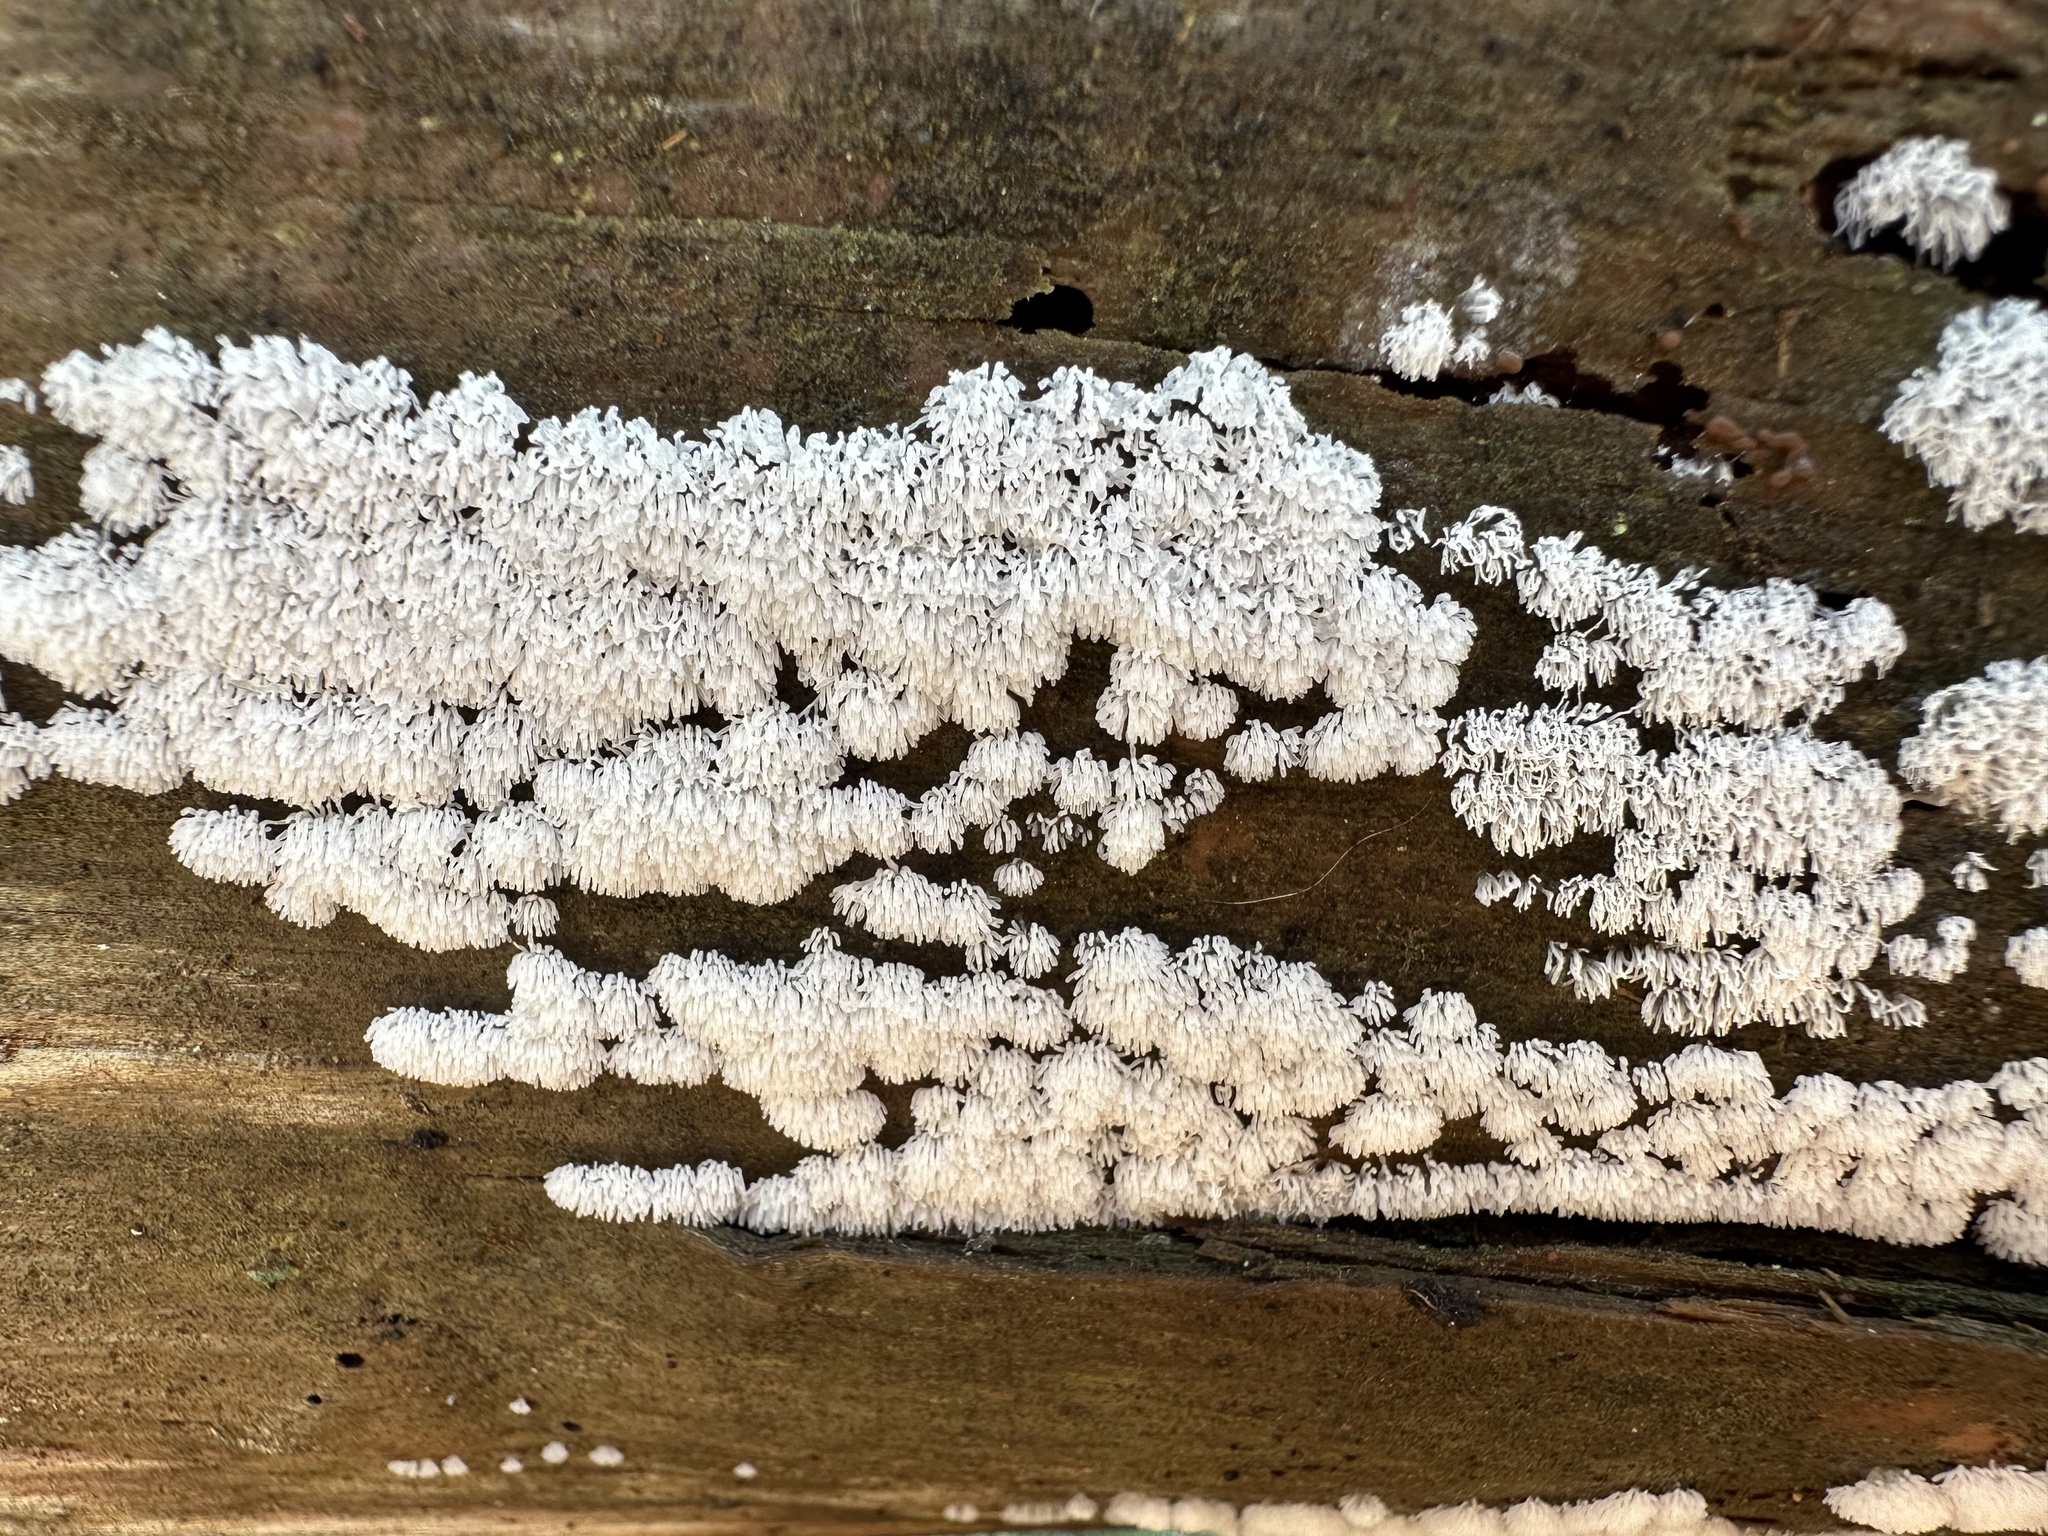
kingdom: Protozoa
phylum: Mycetozoa
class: Protosteliomycetes
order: Ceratiomyxales
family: Ceratiomyxaceae
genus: Ceratiomyxa
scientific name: Ceratiomyxa fruticulosa
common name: Honeycomb coral slime mold
